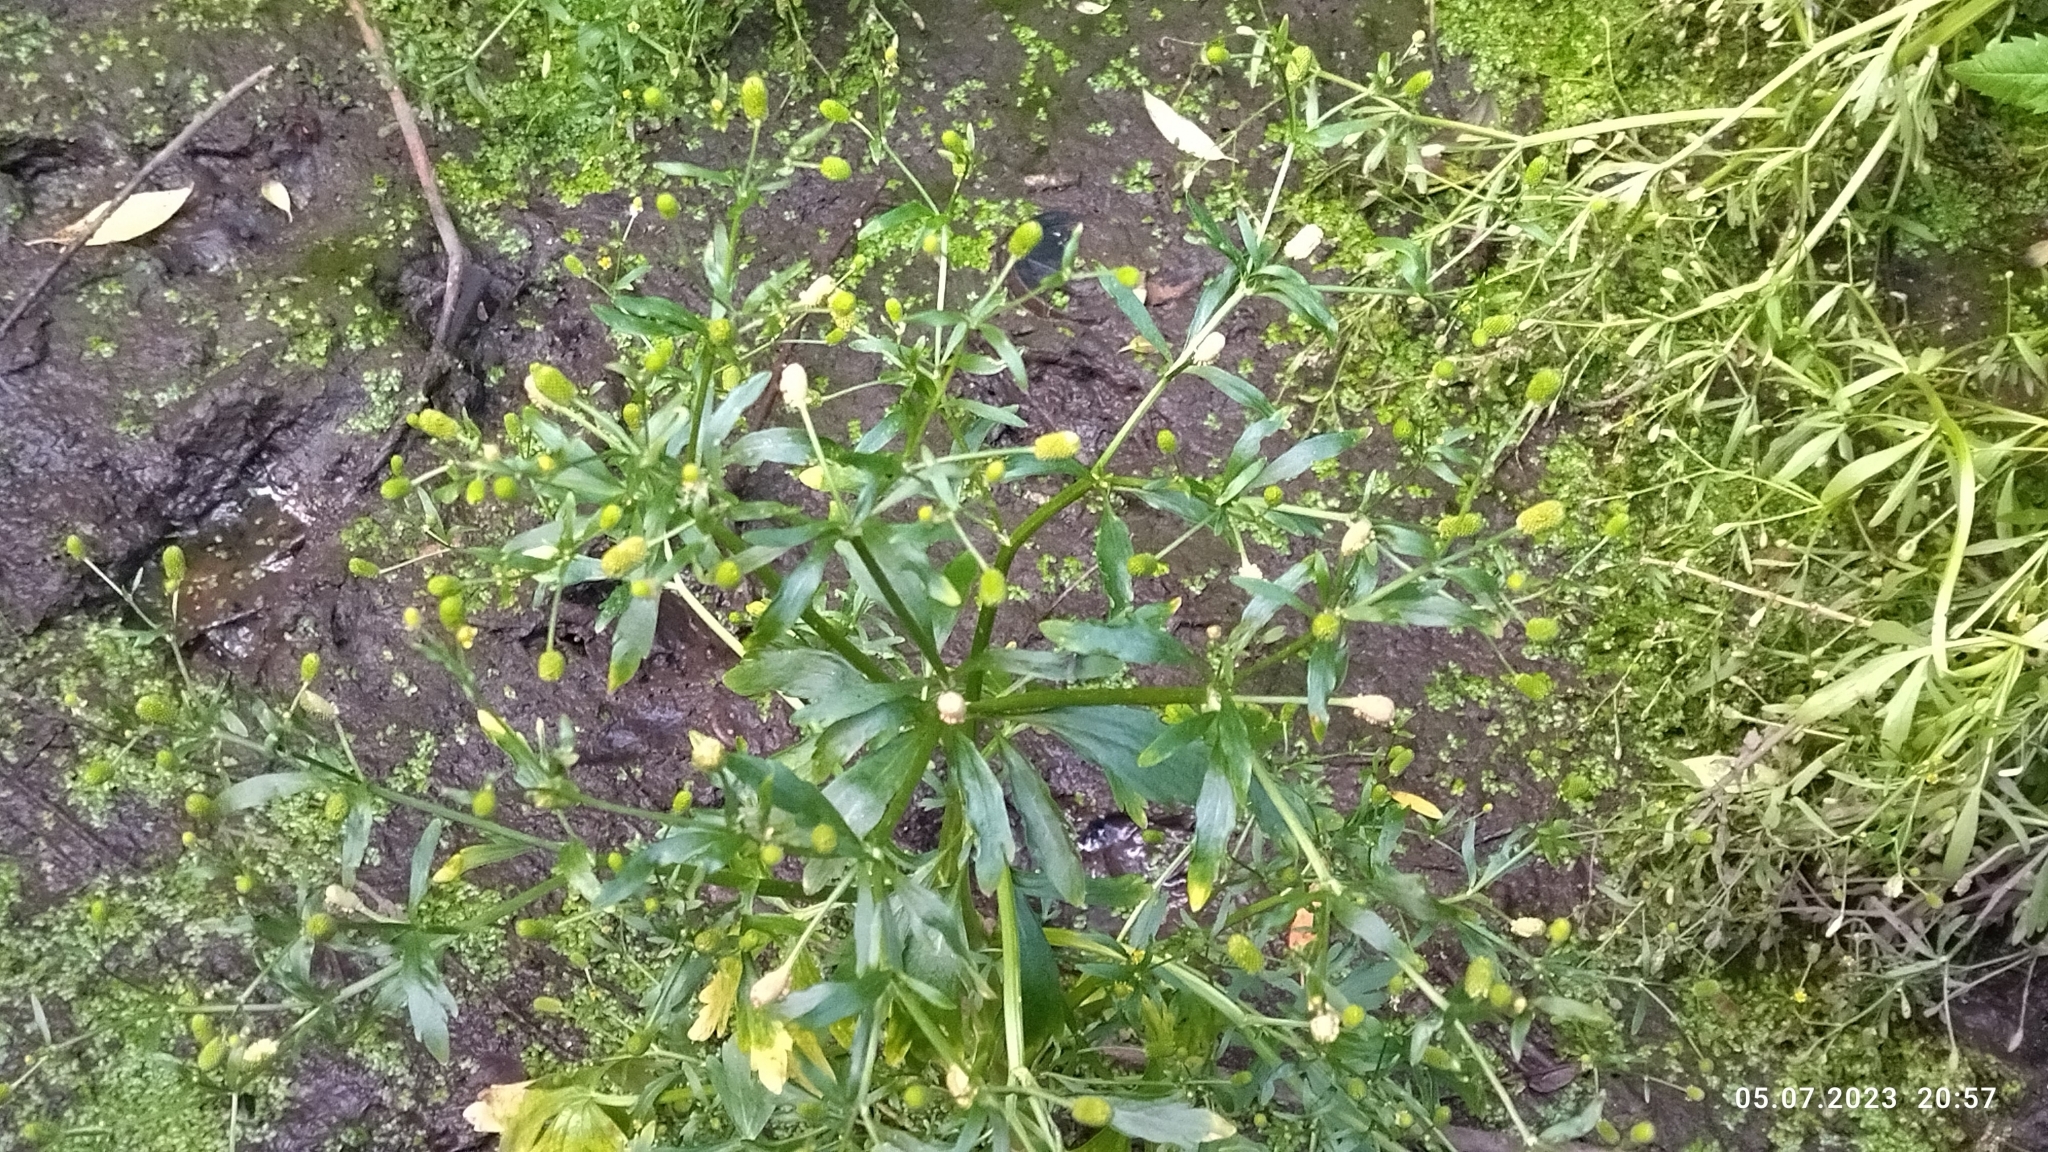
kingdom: Plantae
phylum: Tracheophyta
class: Magnoliopsida
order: Ranunculales
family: Ranunculaceae
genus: Ranunculus
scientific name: Ranunculus sceleratus
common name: Celery-leaved buttercup
